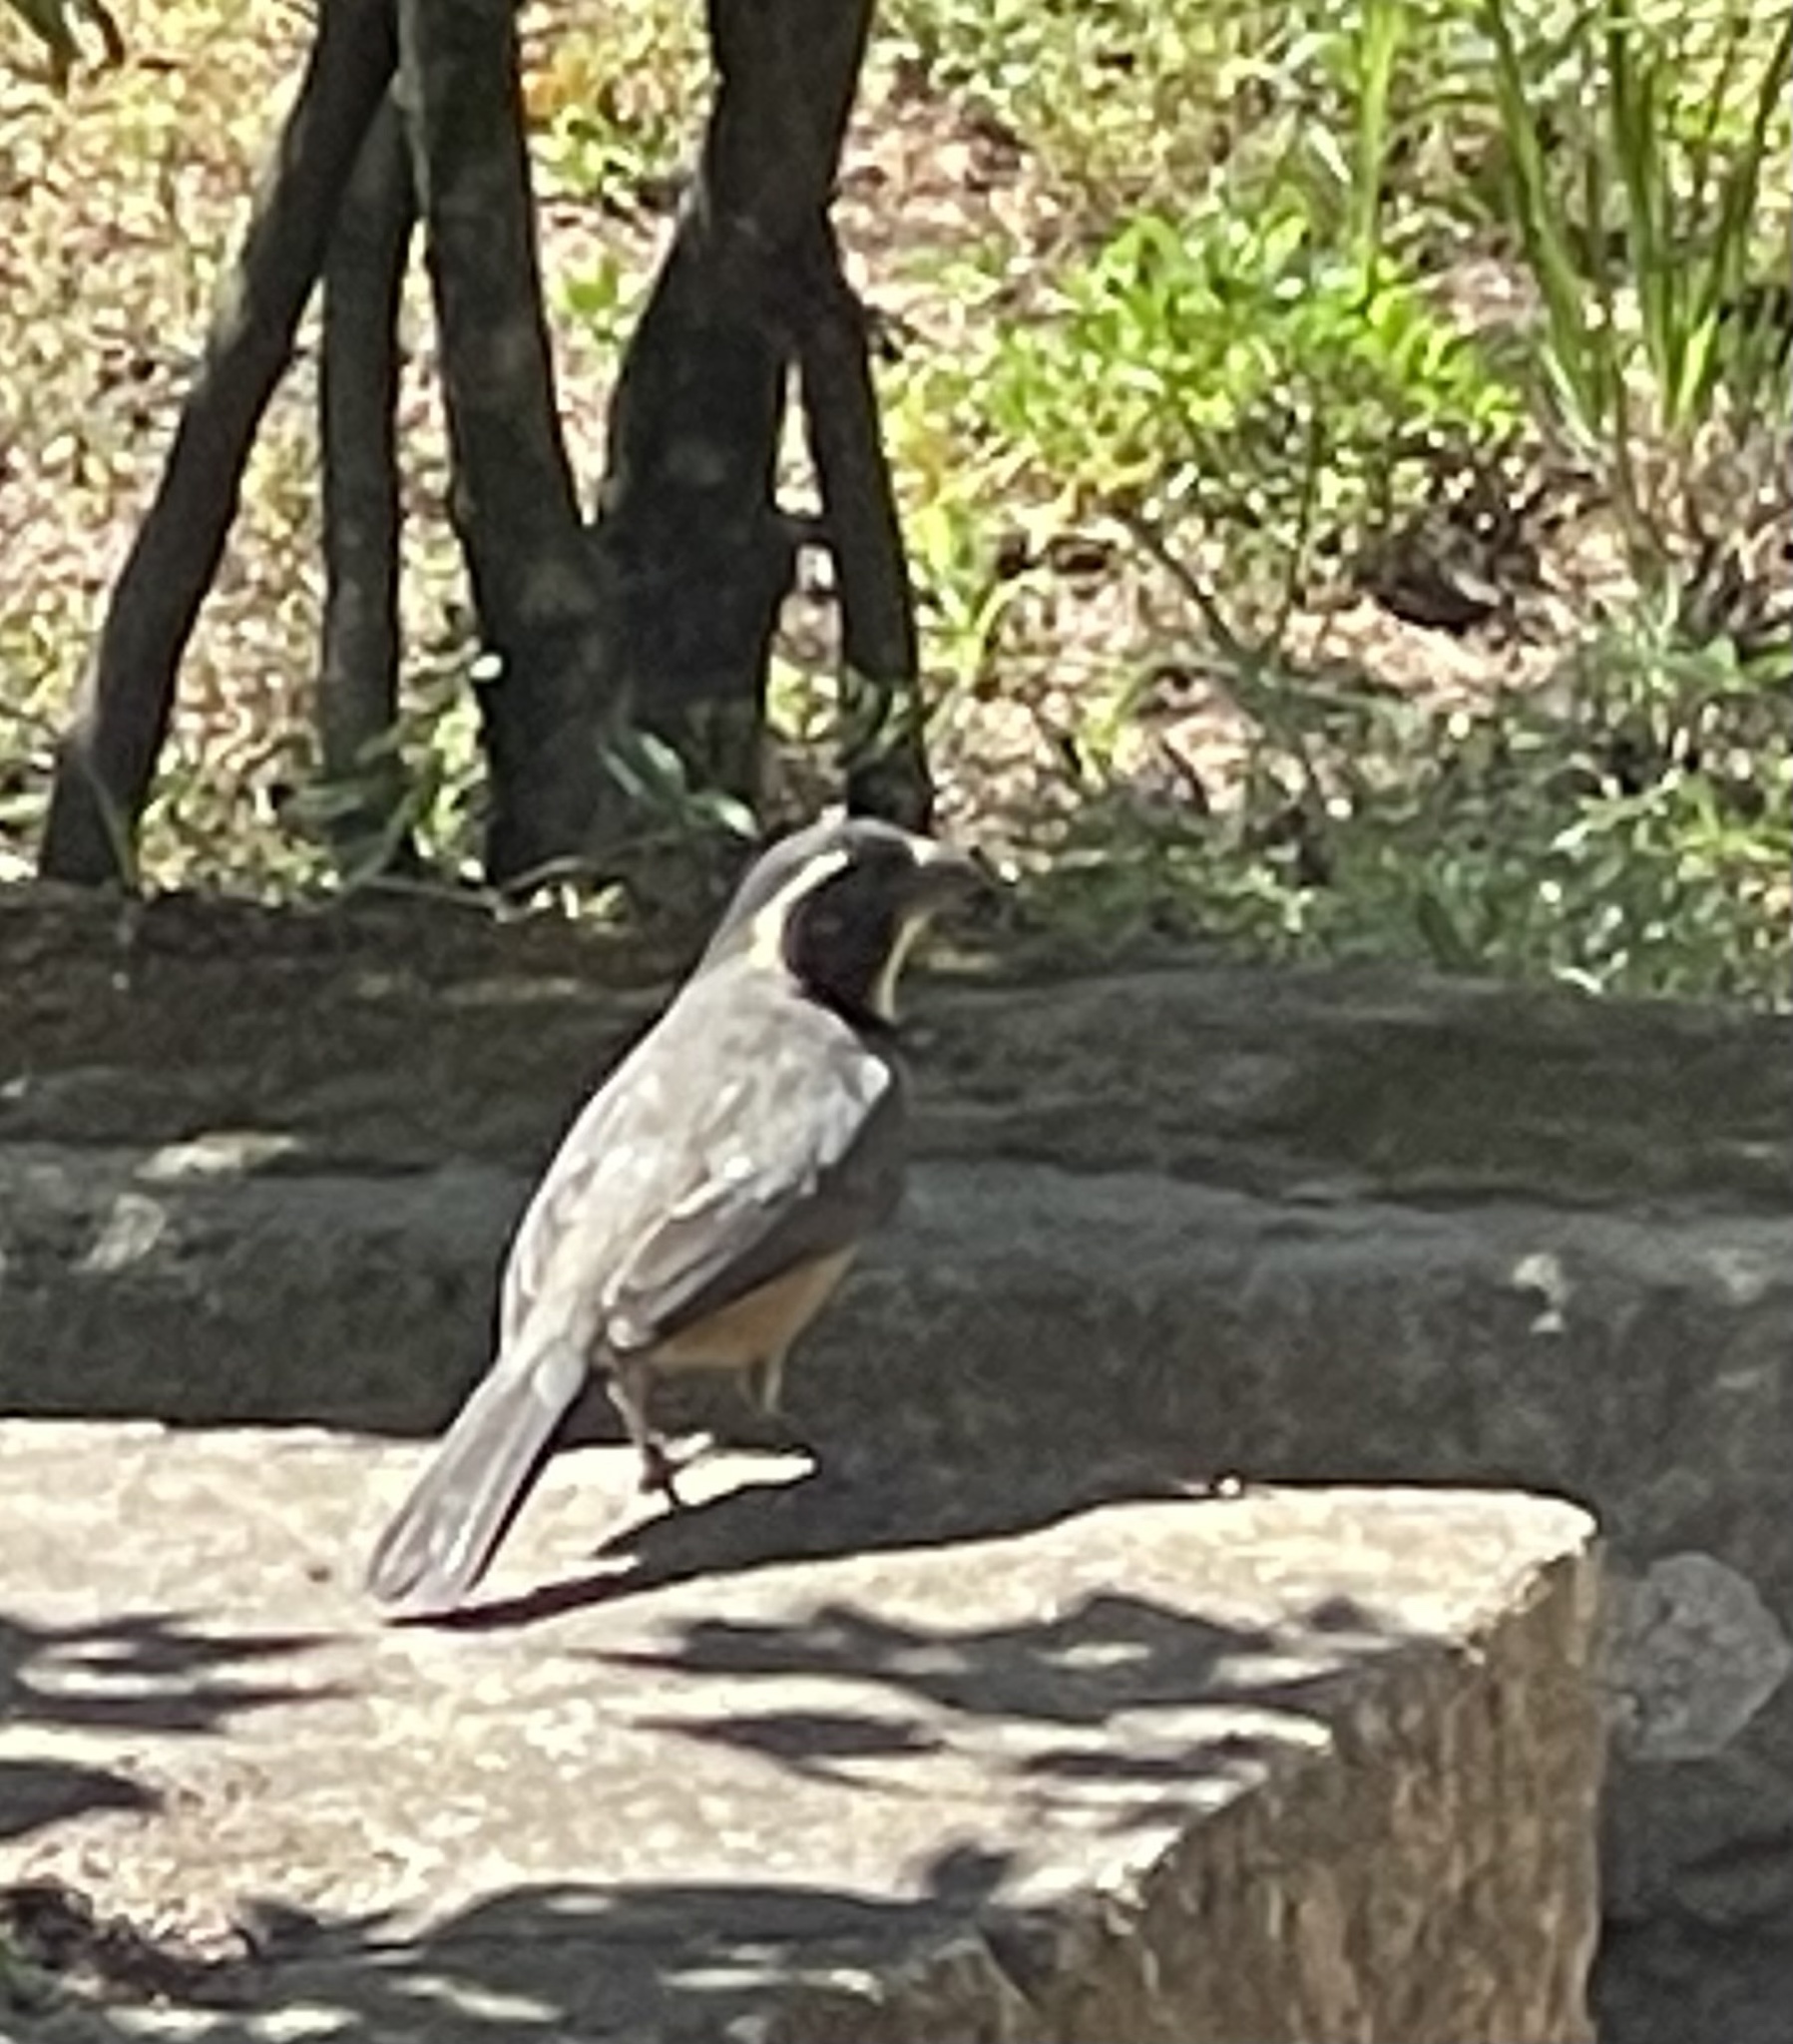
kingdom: Animalia
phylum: Chordata
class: Aves
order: Passeriformes
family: Thraupidae
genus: Saltator
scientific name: Saltator aurantiirostris
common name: Golden-billed saltator
